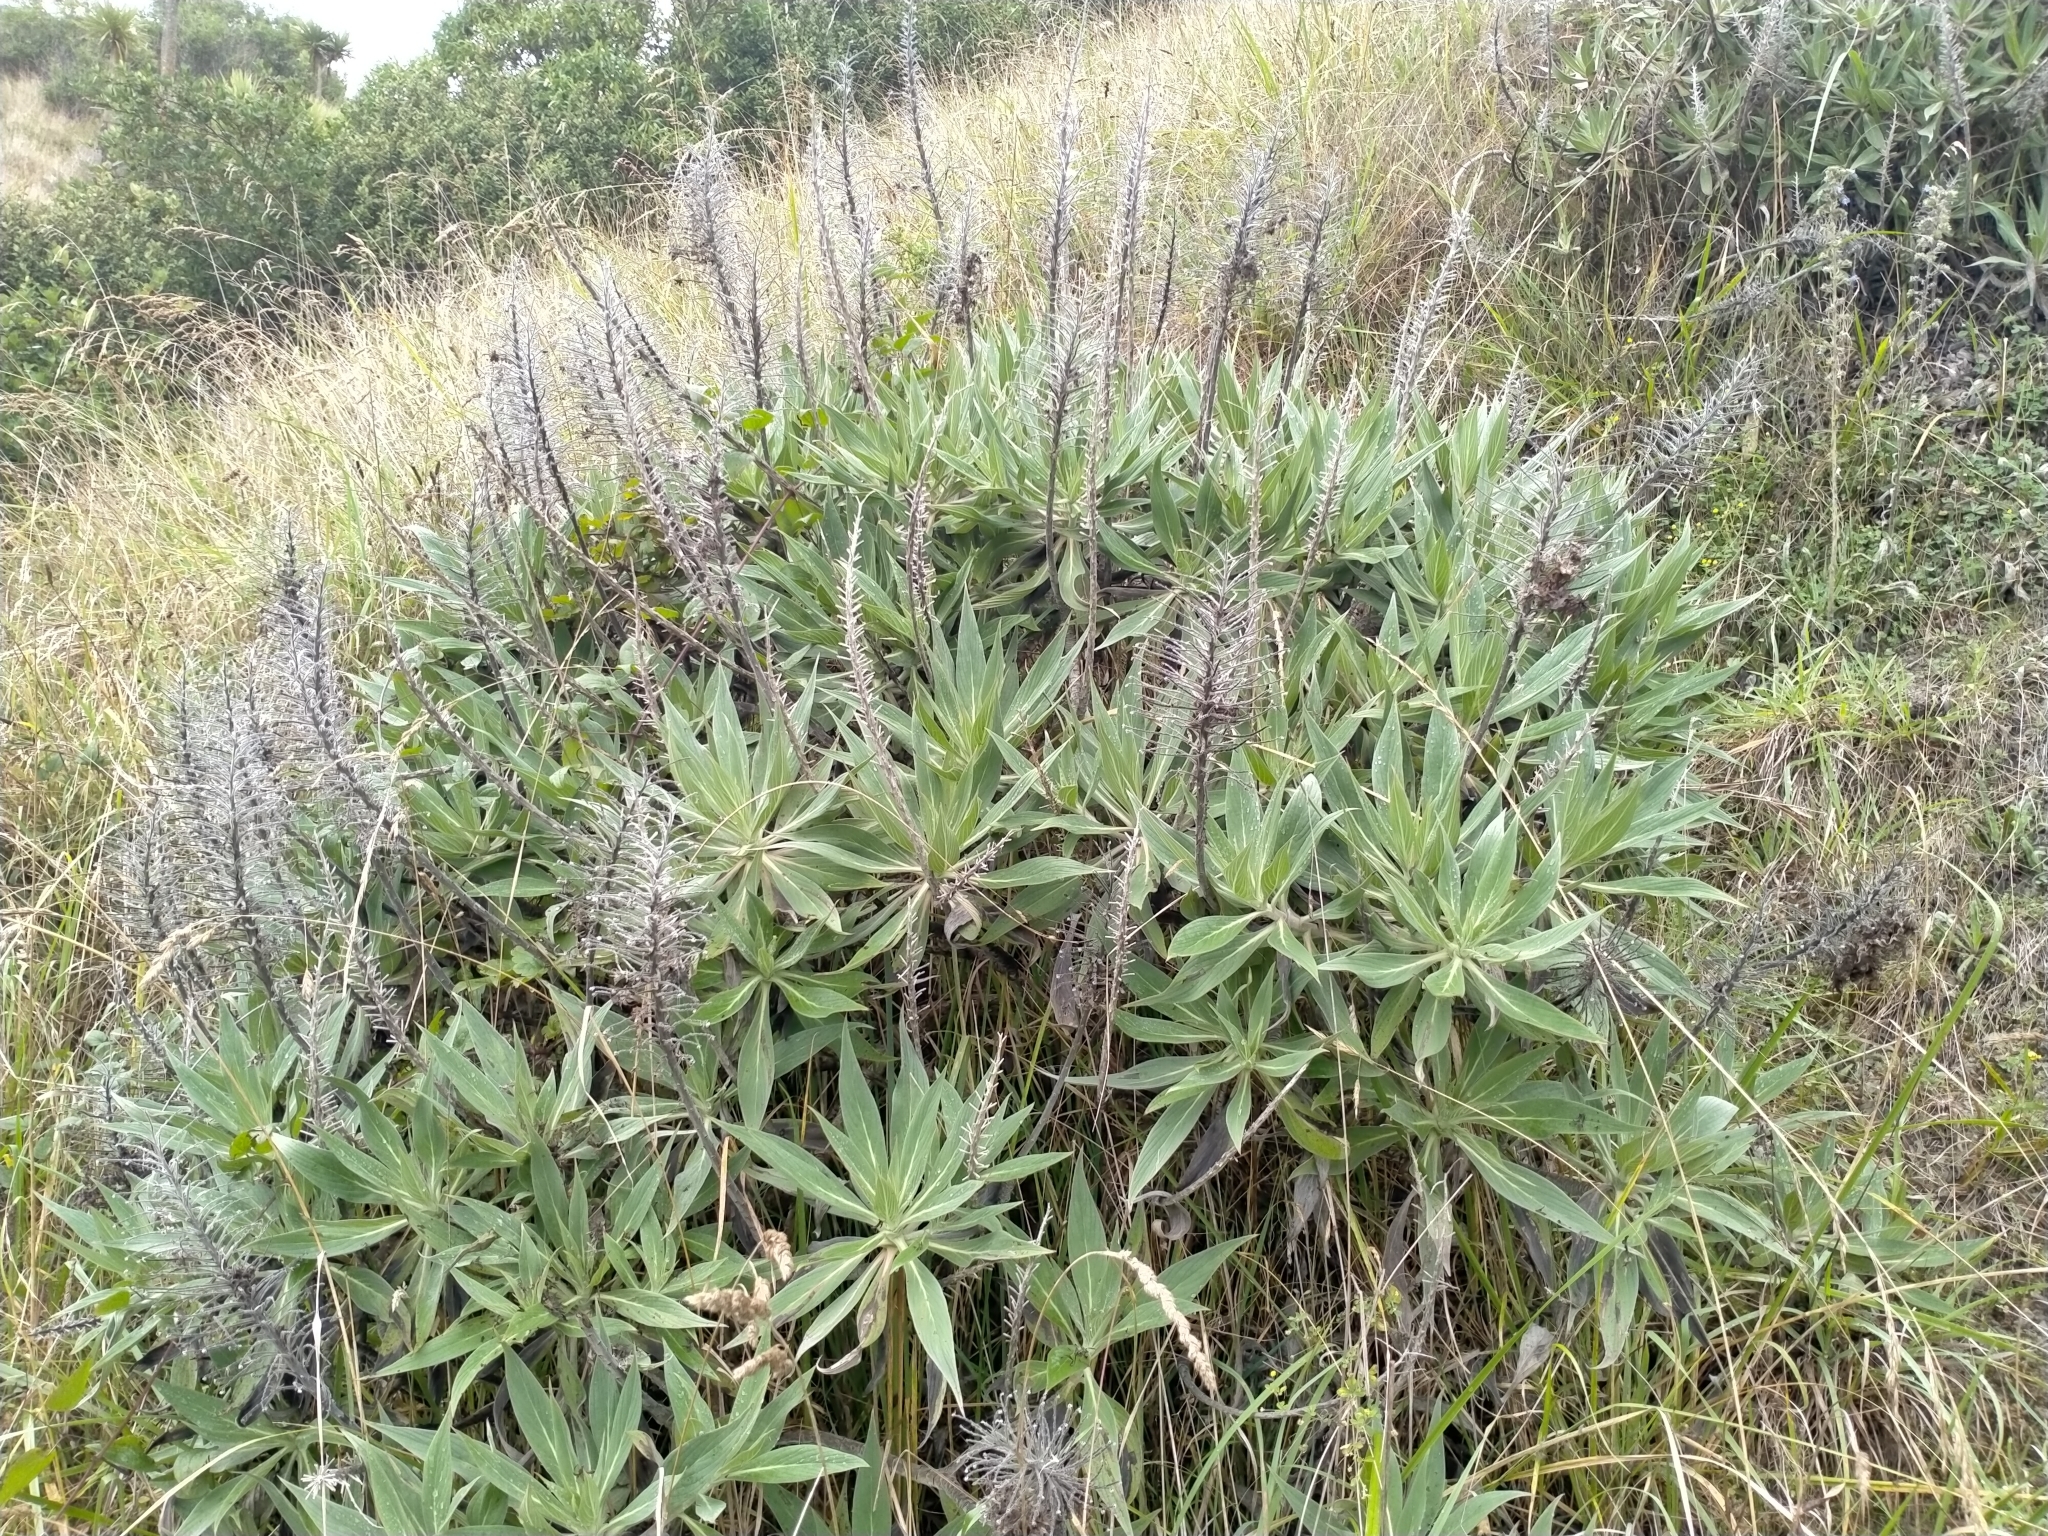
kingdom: Plantae
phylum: Tracheophyta
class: Magnoliopsida
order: Boraginales
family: Boraginaceae
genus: Echium
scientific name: Echium candicans
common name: Pride of madeira
